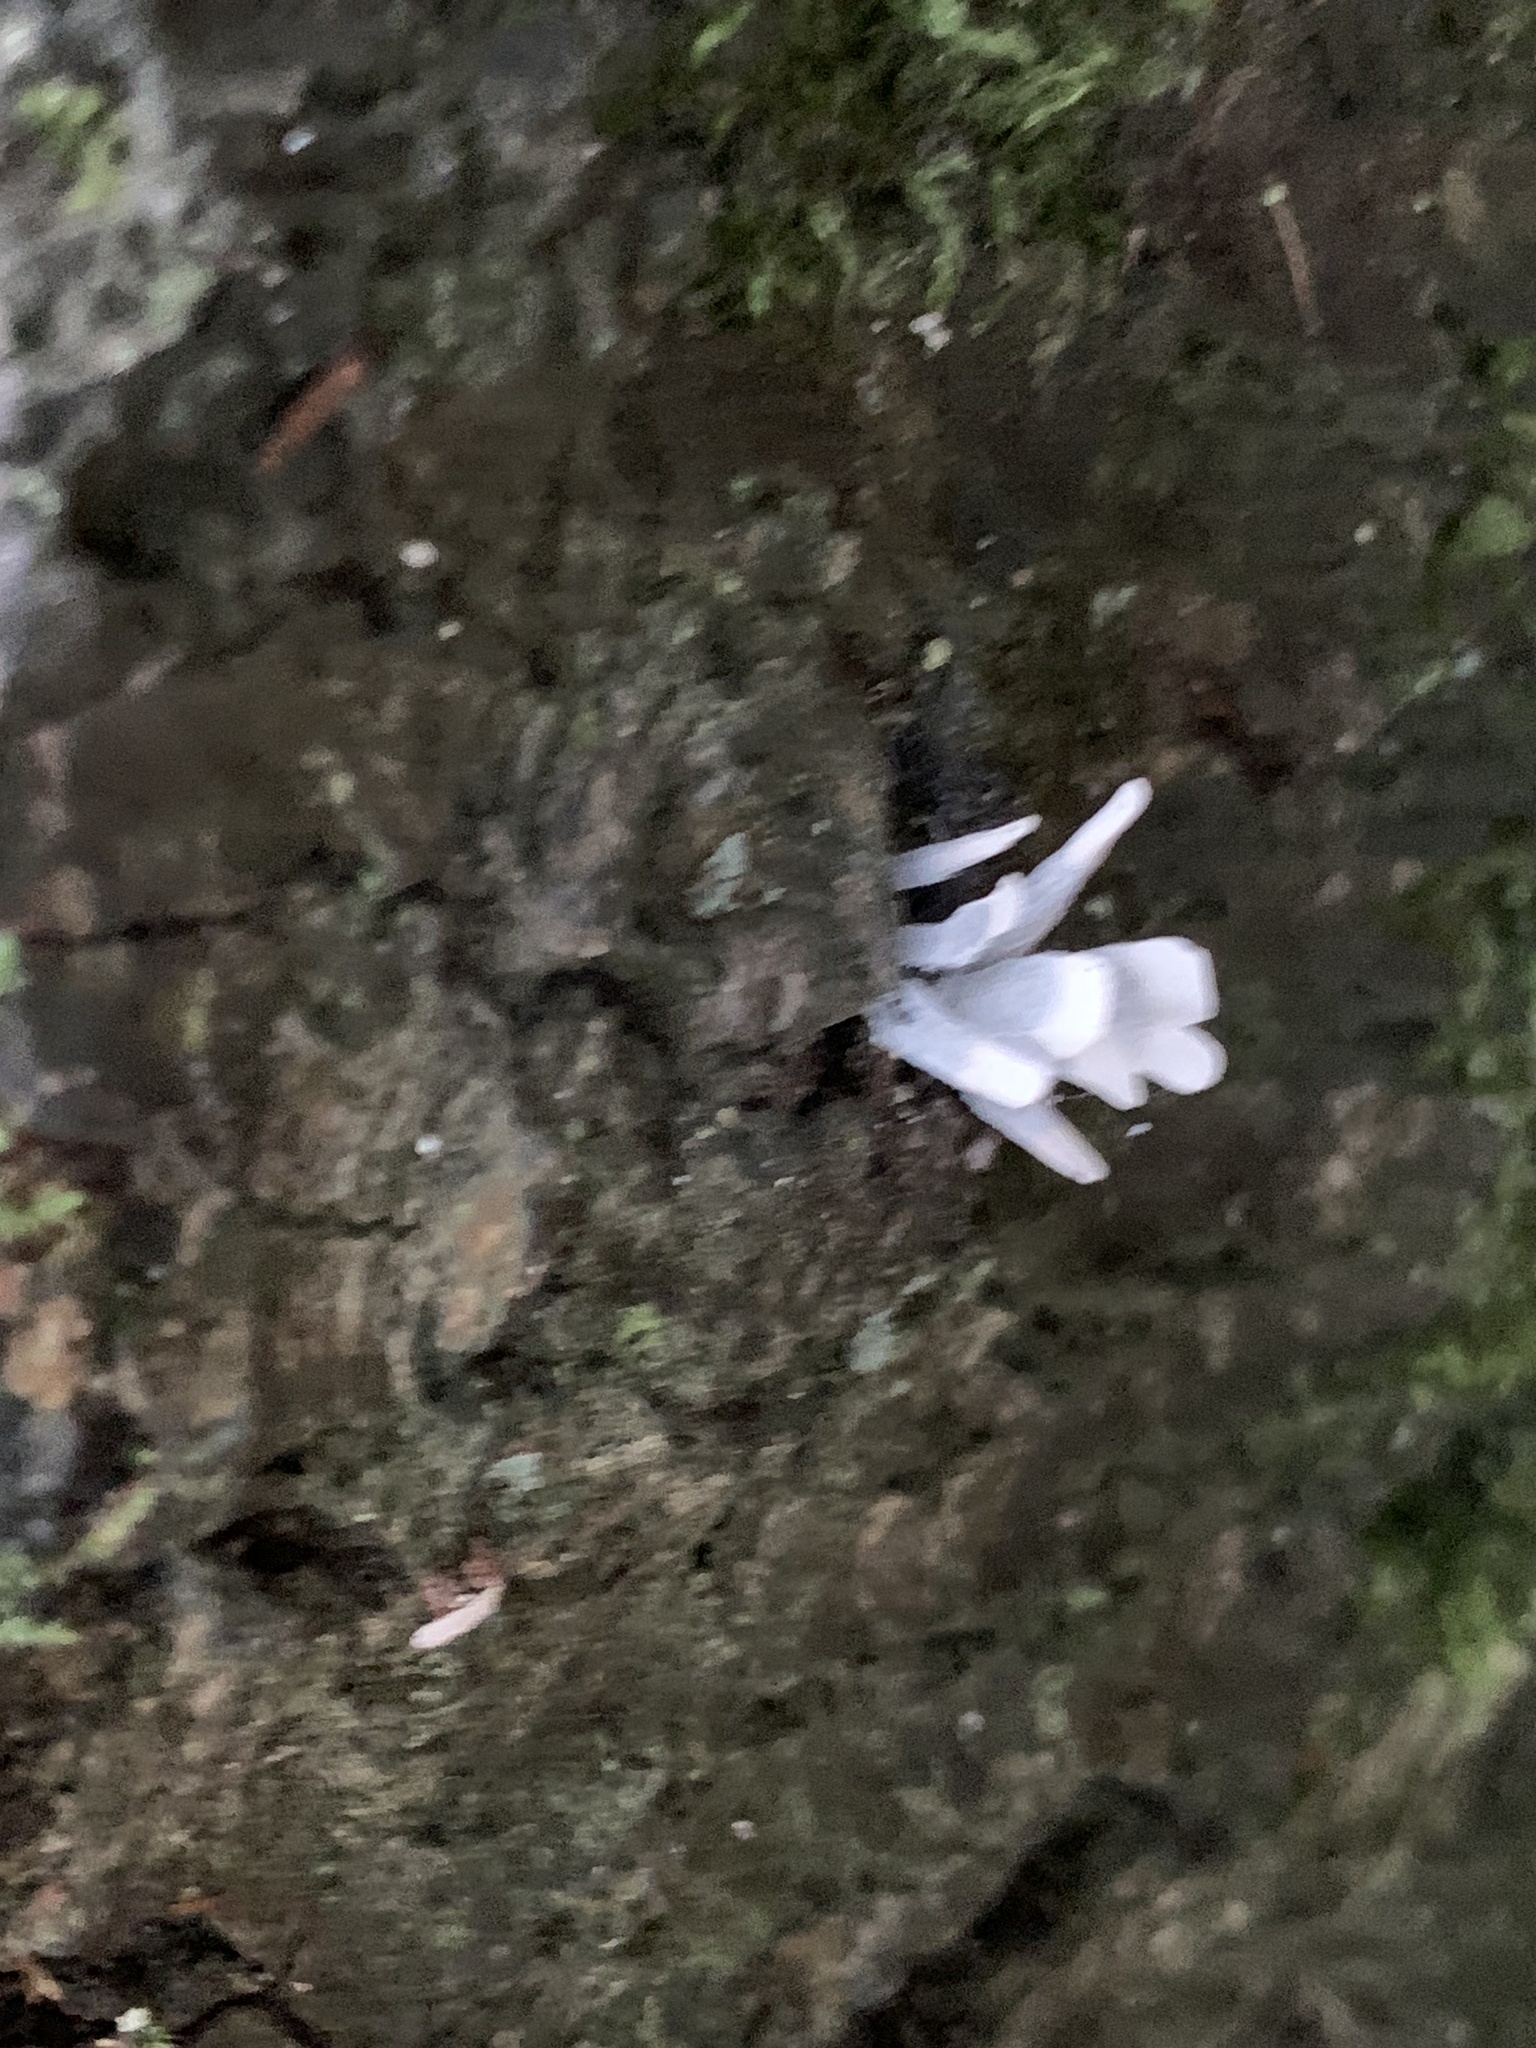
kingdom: Fungi
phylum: Ascomycota
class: Sordariomycetes
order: Xylariales
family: Xylariaceae
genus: Xylaria
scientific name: Xylaria hypoxylon
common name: Candle-snuff fungus
